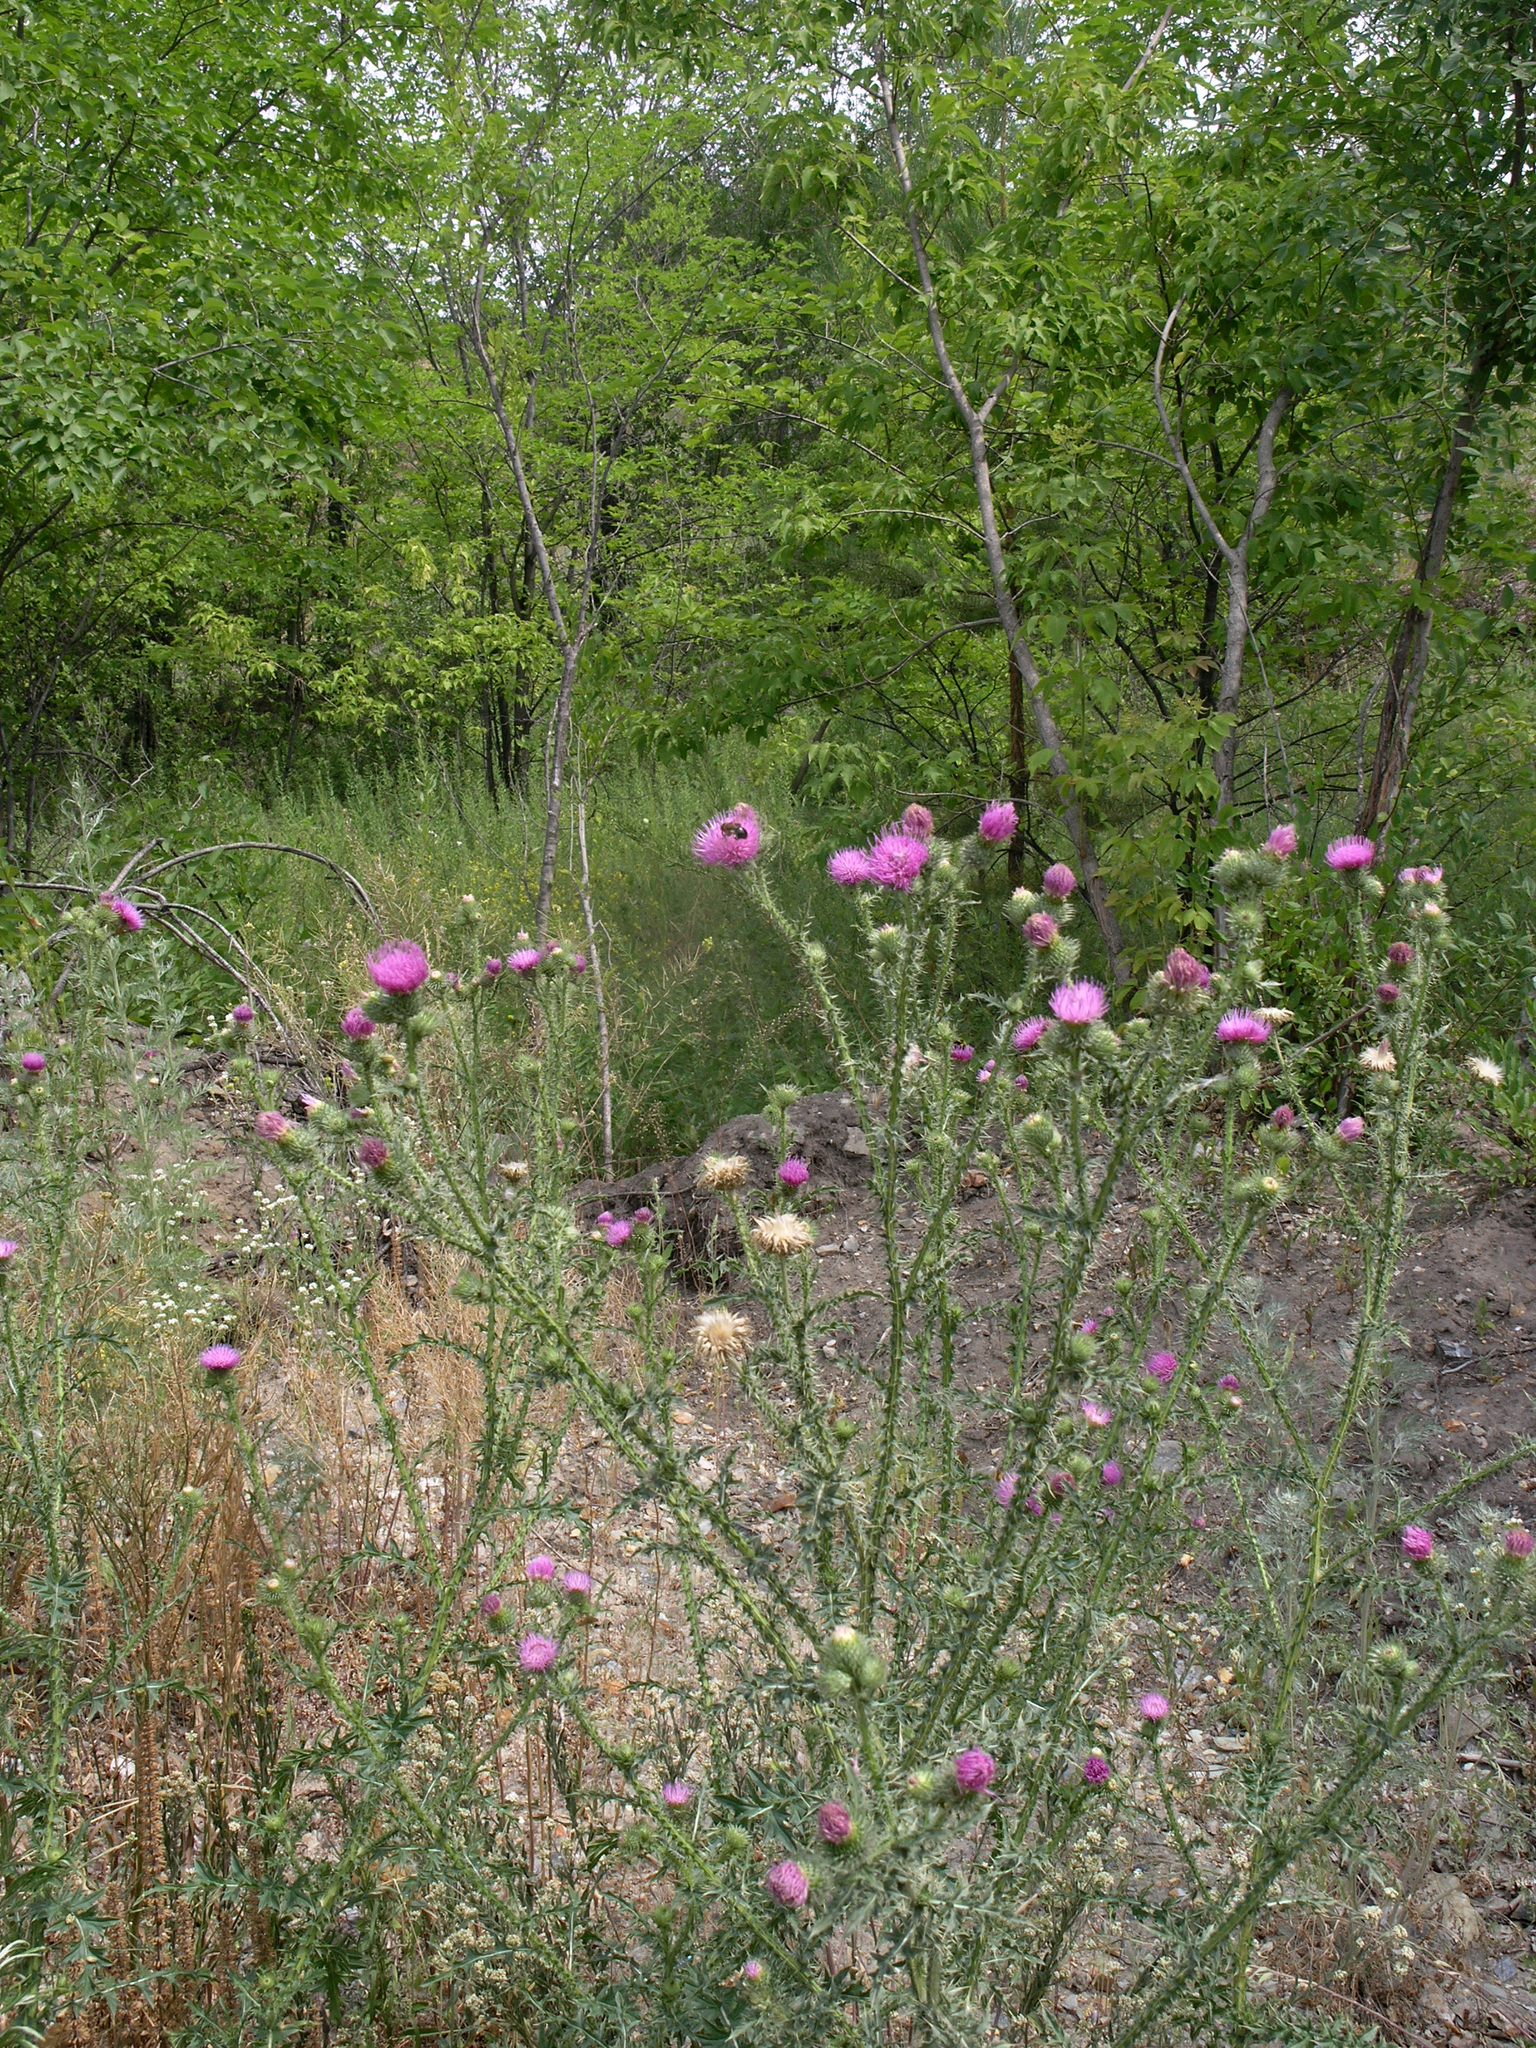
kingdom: Plantae
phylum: Tracheophyta
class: Magnoliopsida
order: Asterales
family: Asteraceae
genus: Carduus
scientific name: Carduus crispus
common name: Welted thistle
